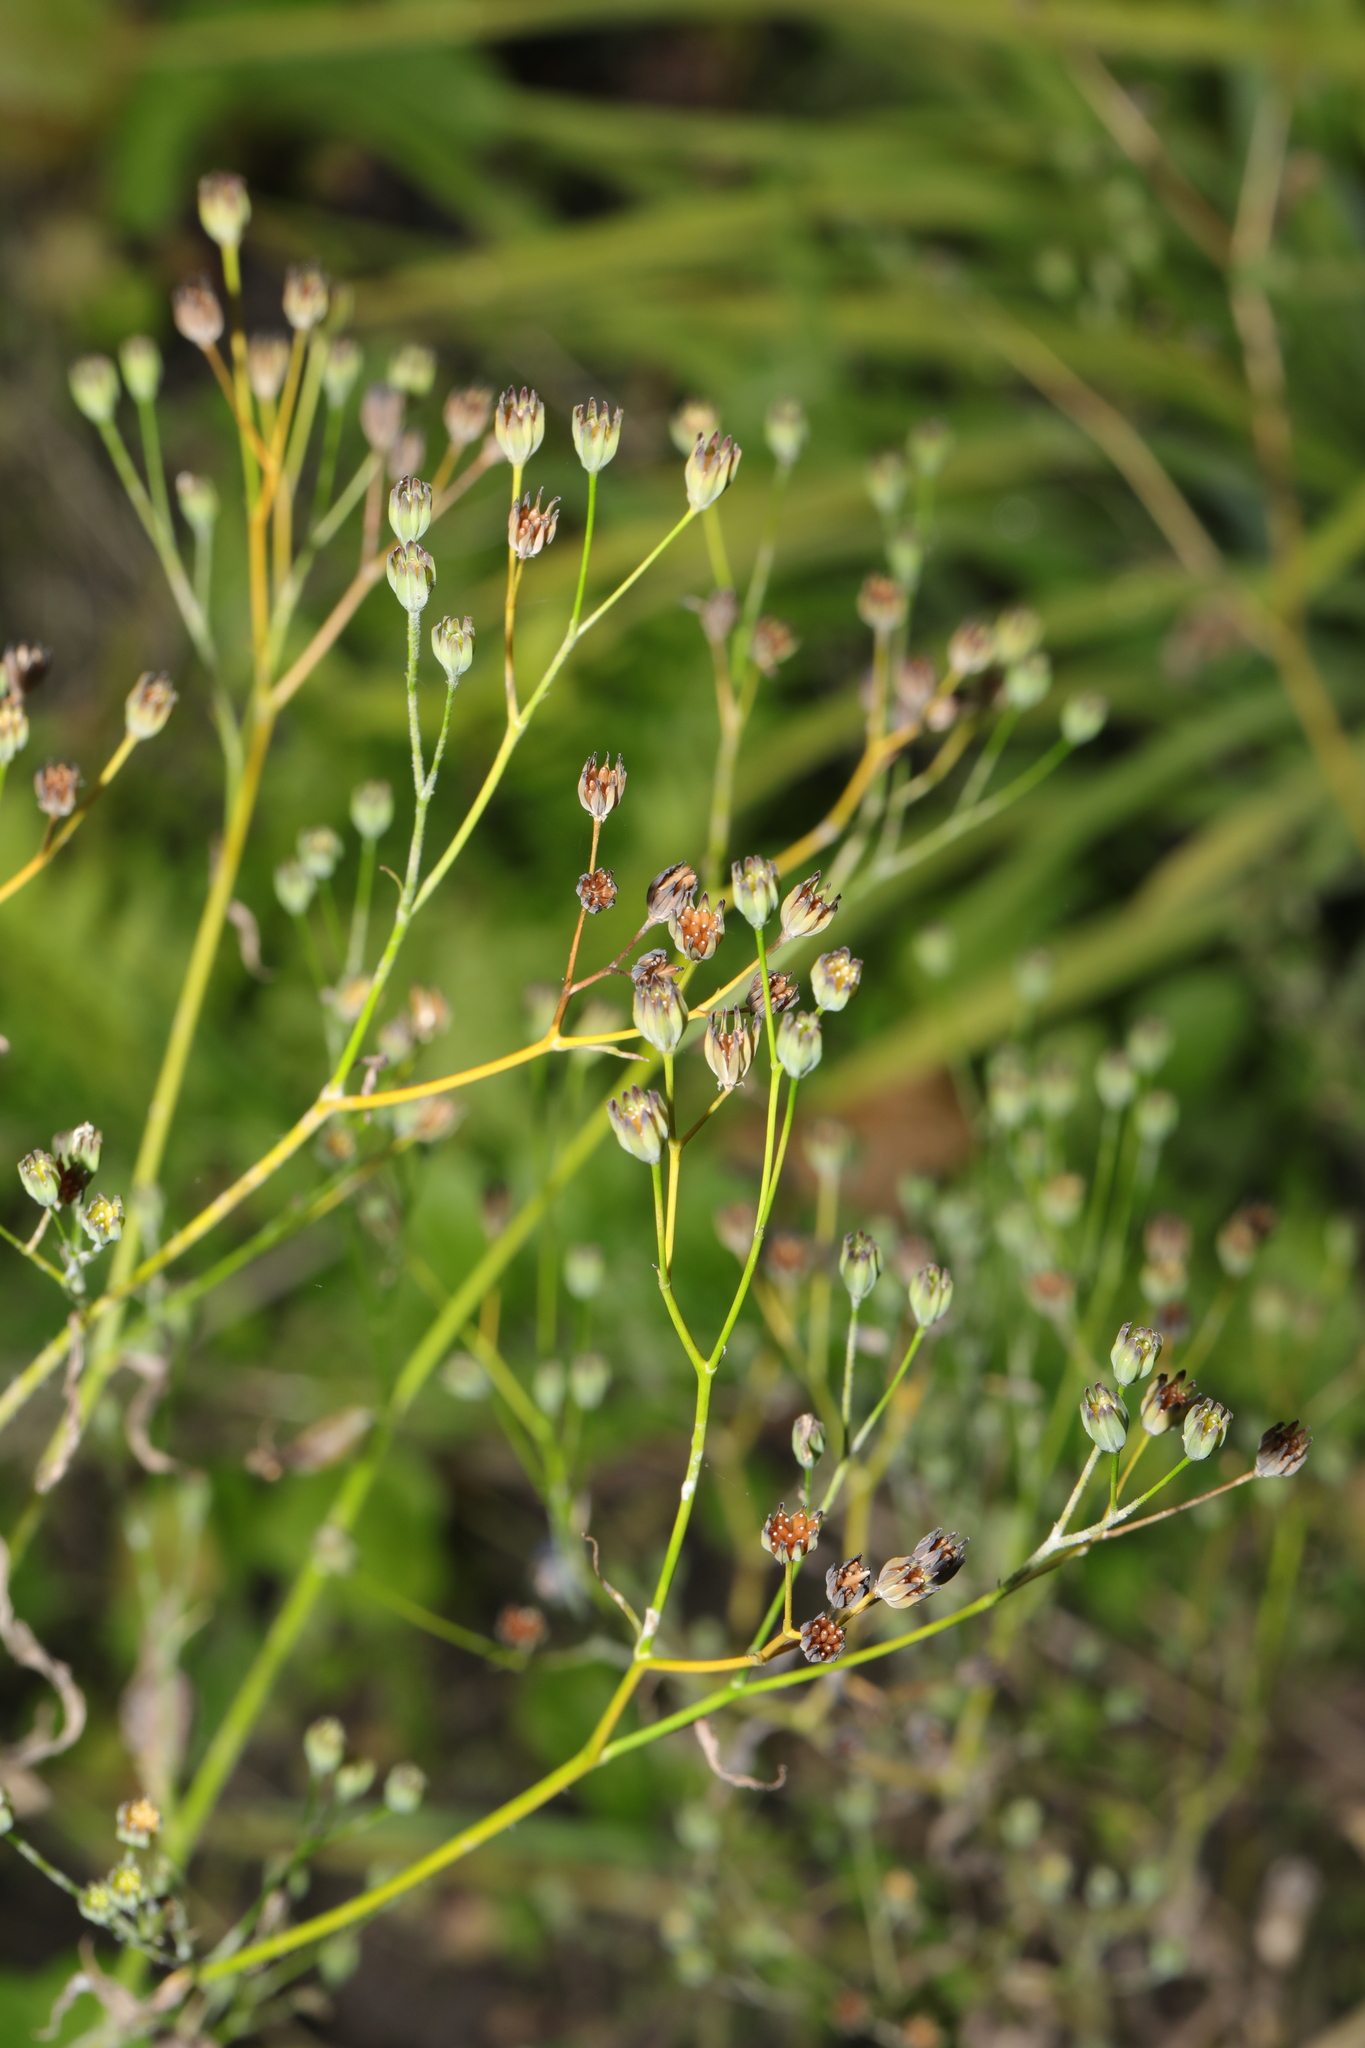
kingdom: Plantae
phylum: Tracheophyta
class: Magnoliopsida
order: Asterales
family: Asteraceae
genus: Lapsana
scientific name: Lapsana communis
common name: Nipplewort
